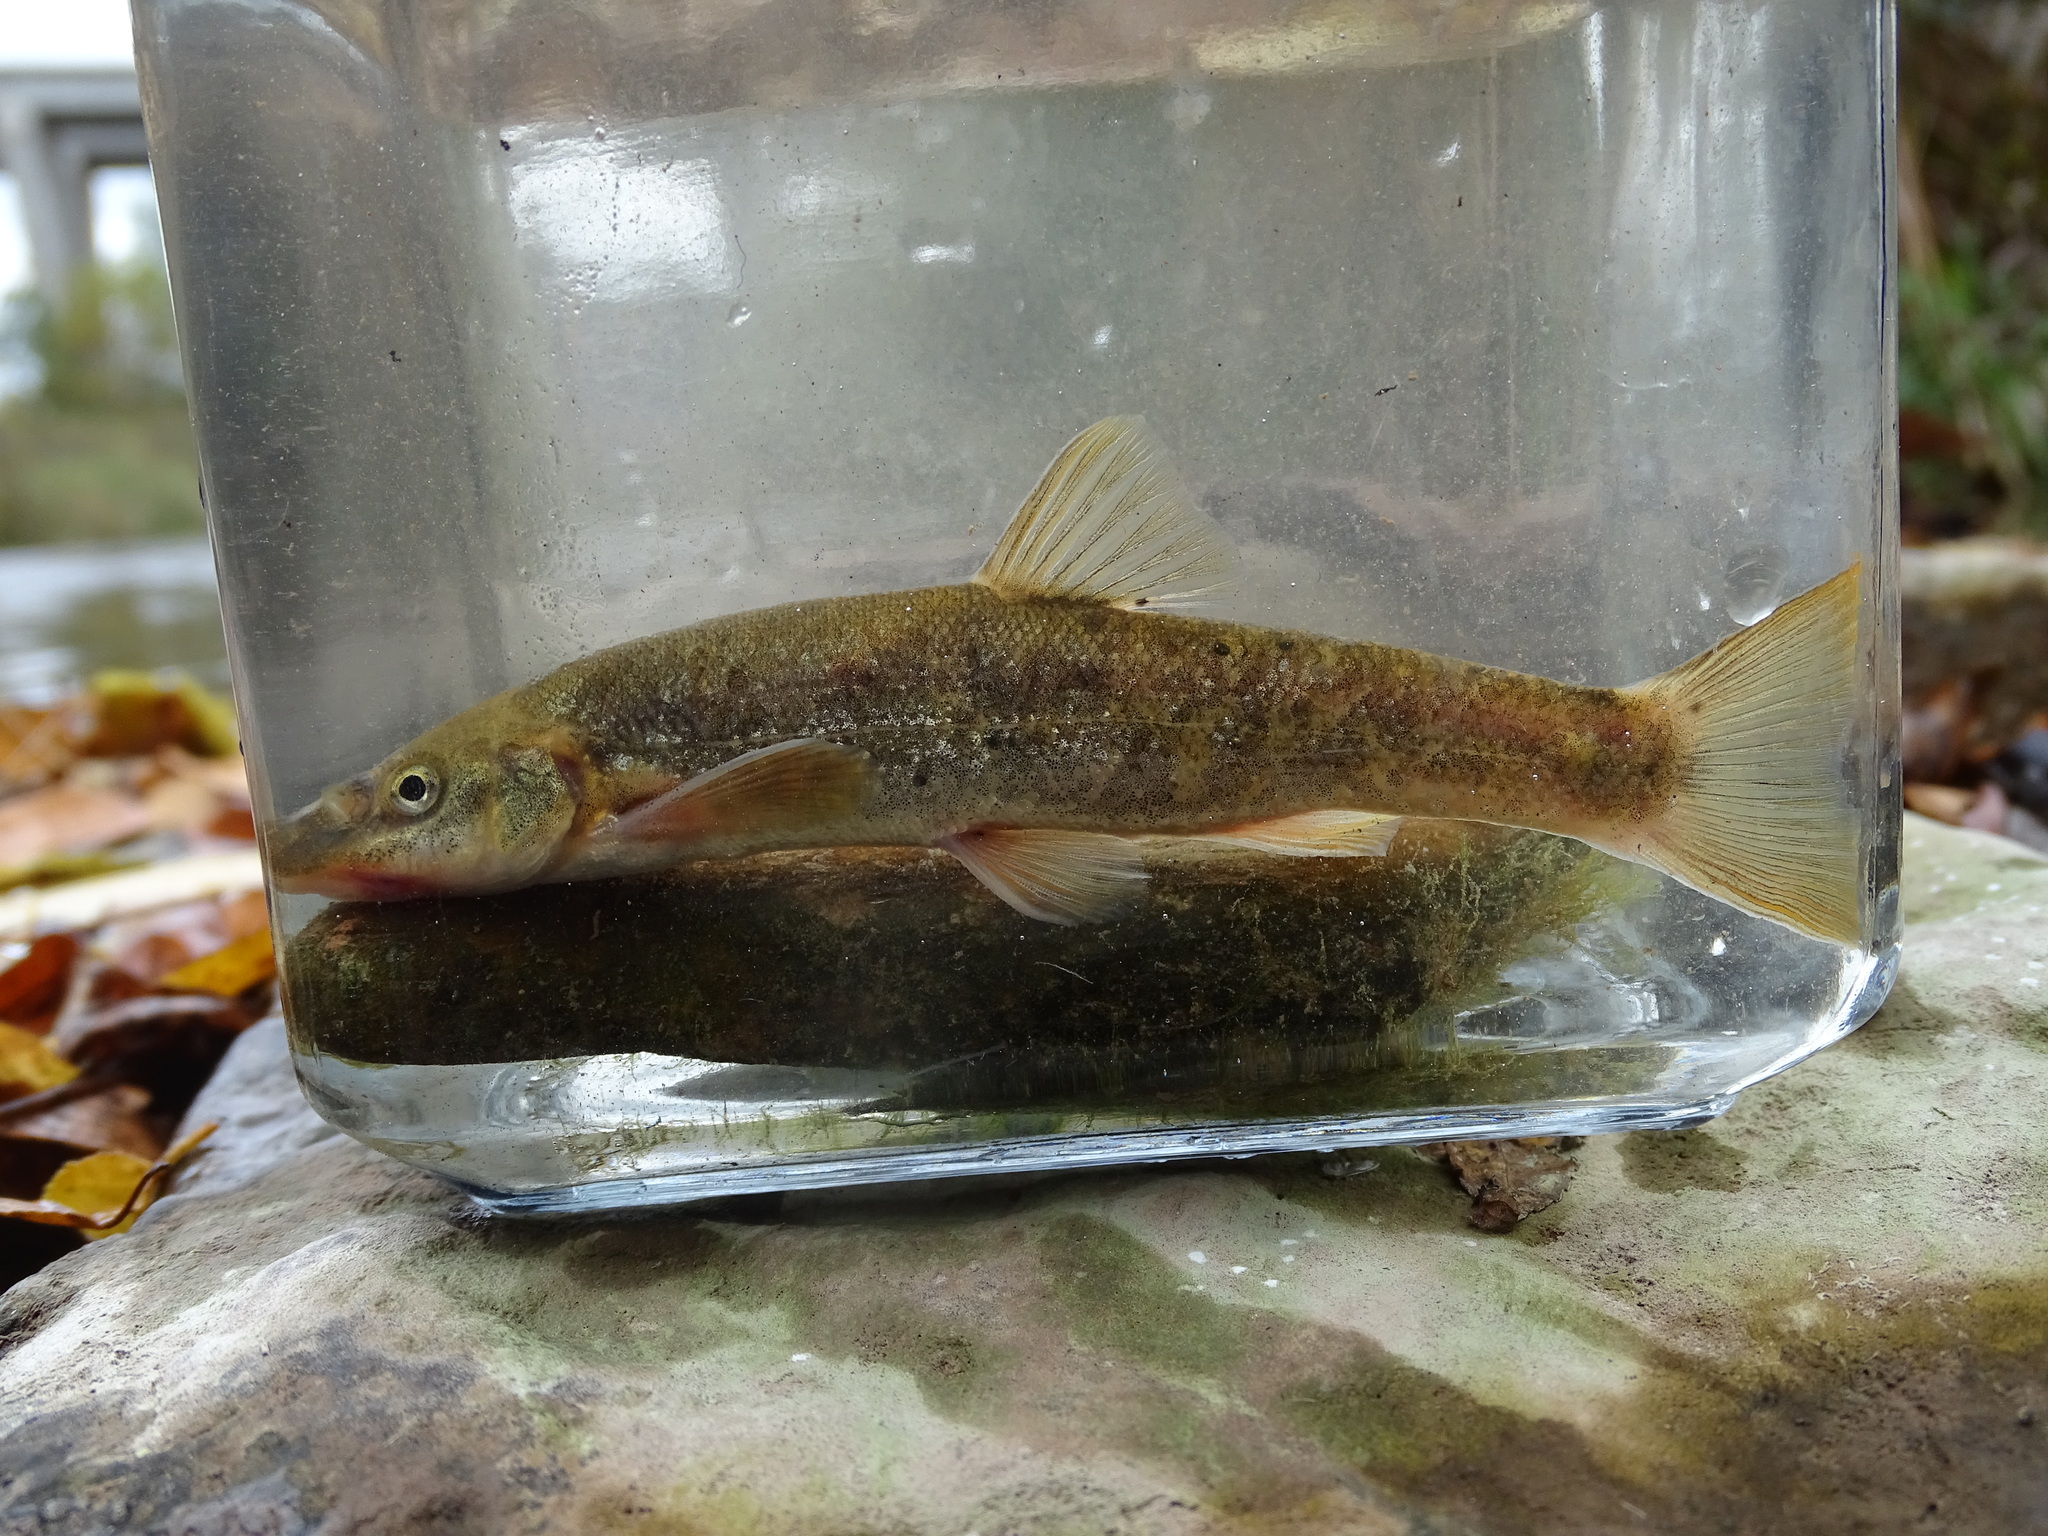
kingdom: Animalia
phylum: Chordata
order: Cypriniformes
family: Cyprinidae
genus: Rhinichthys
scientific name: Rhinichthys cataractae
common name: Longnose dace
